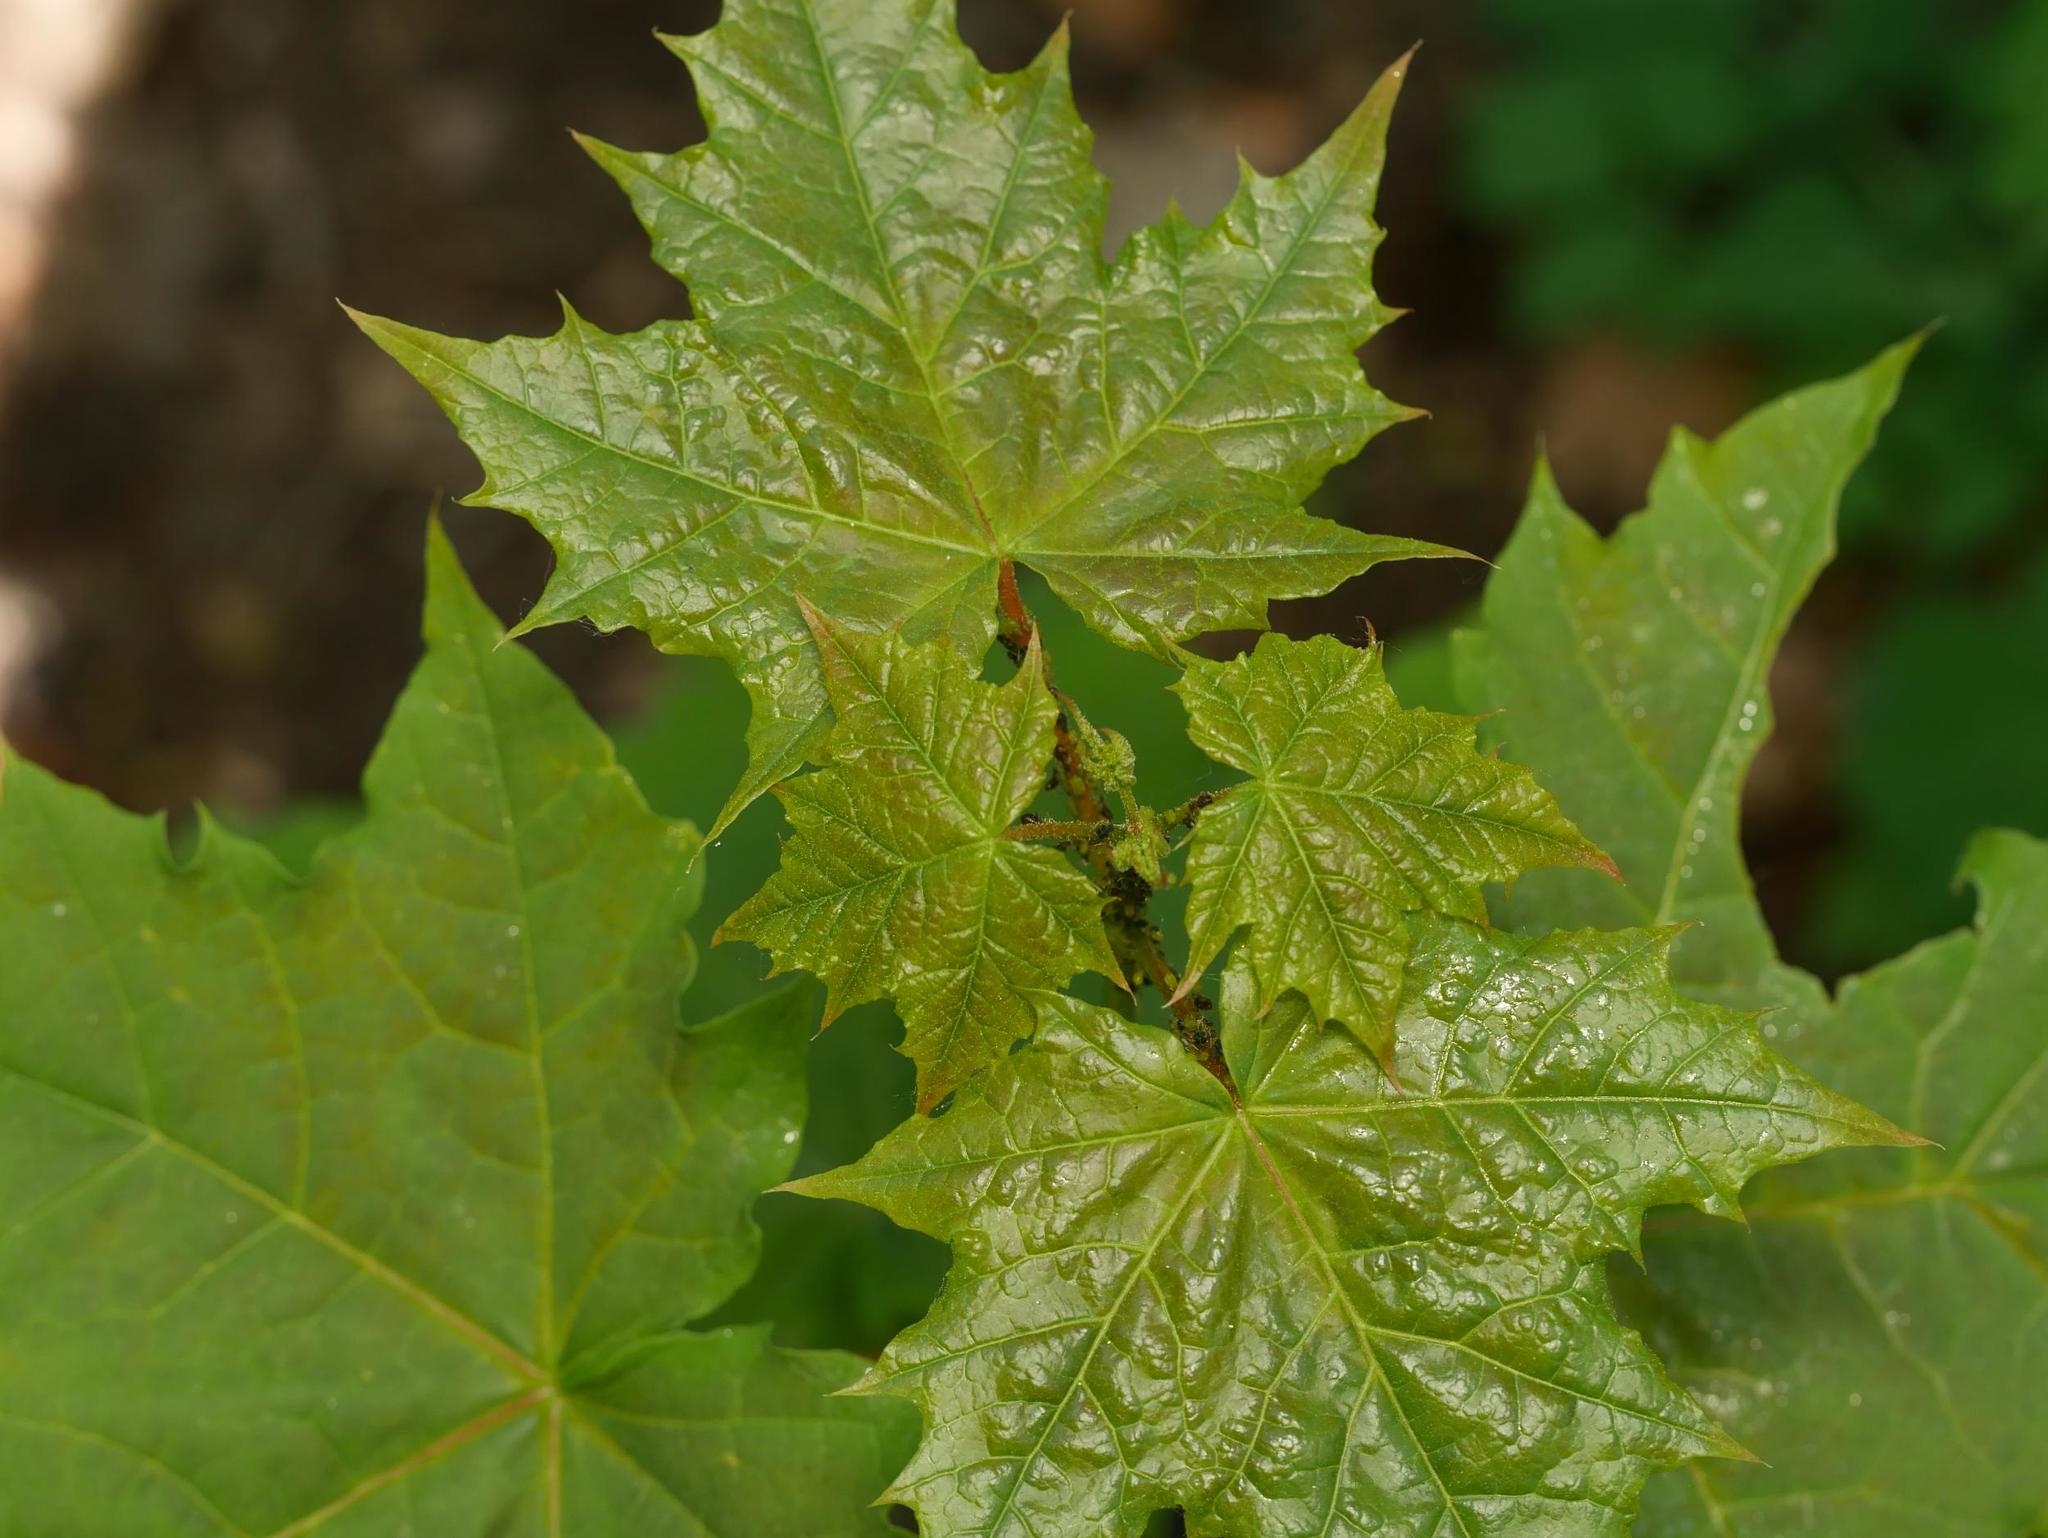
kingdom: Plantae
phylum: Tracheophyta
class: Magnoliopsida
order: Sapindales
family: Sapindaceae
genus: Acer
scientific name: Acer platanoides
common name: Norway maple
